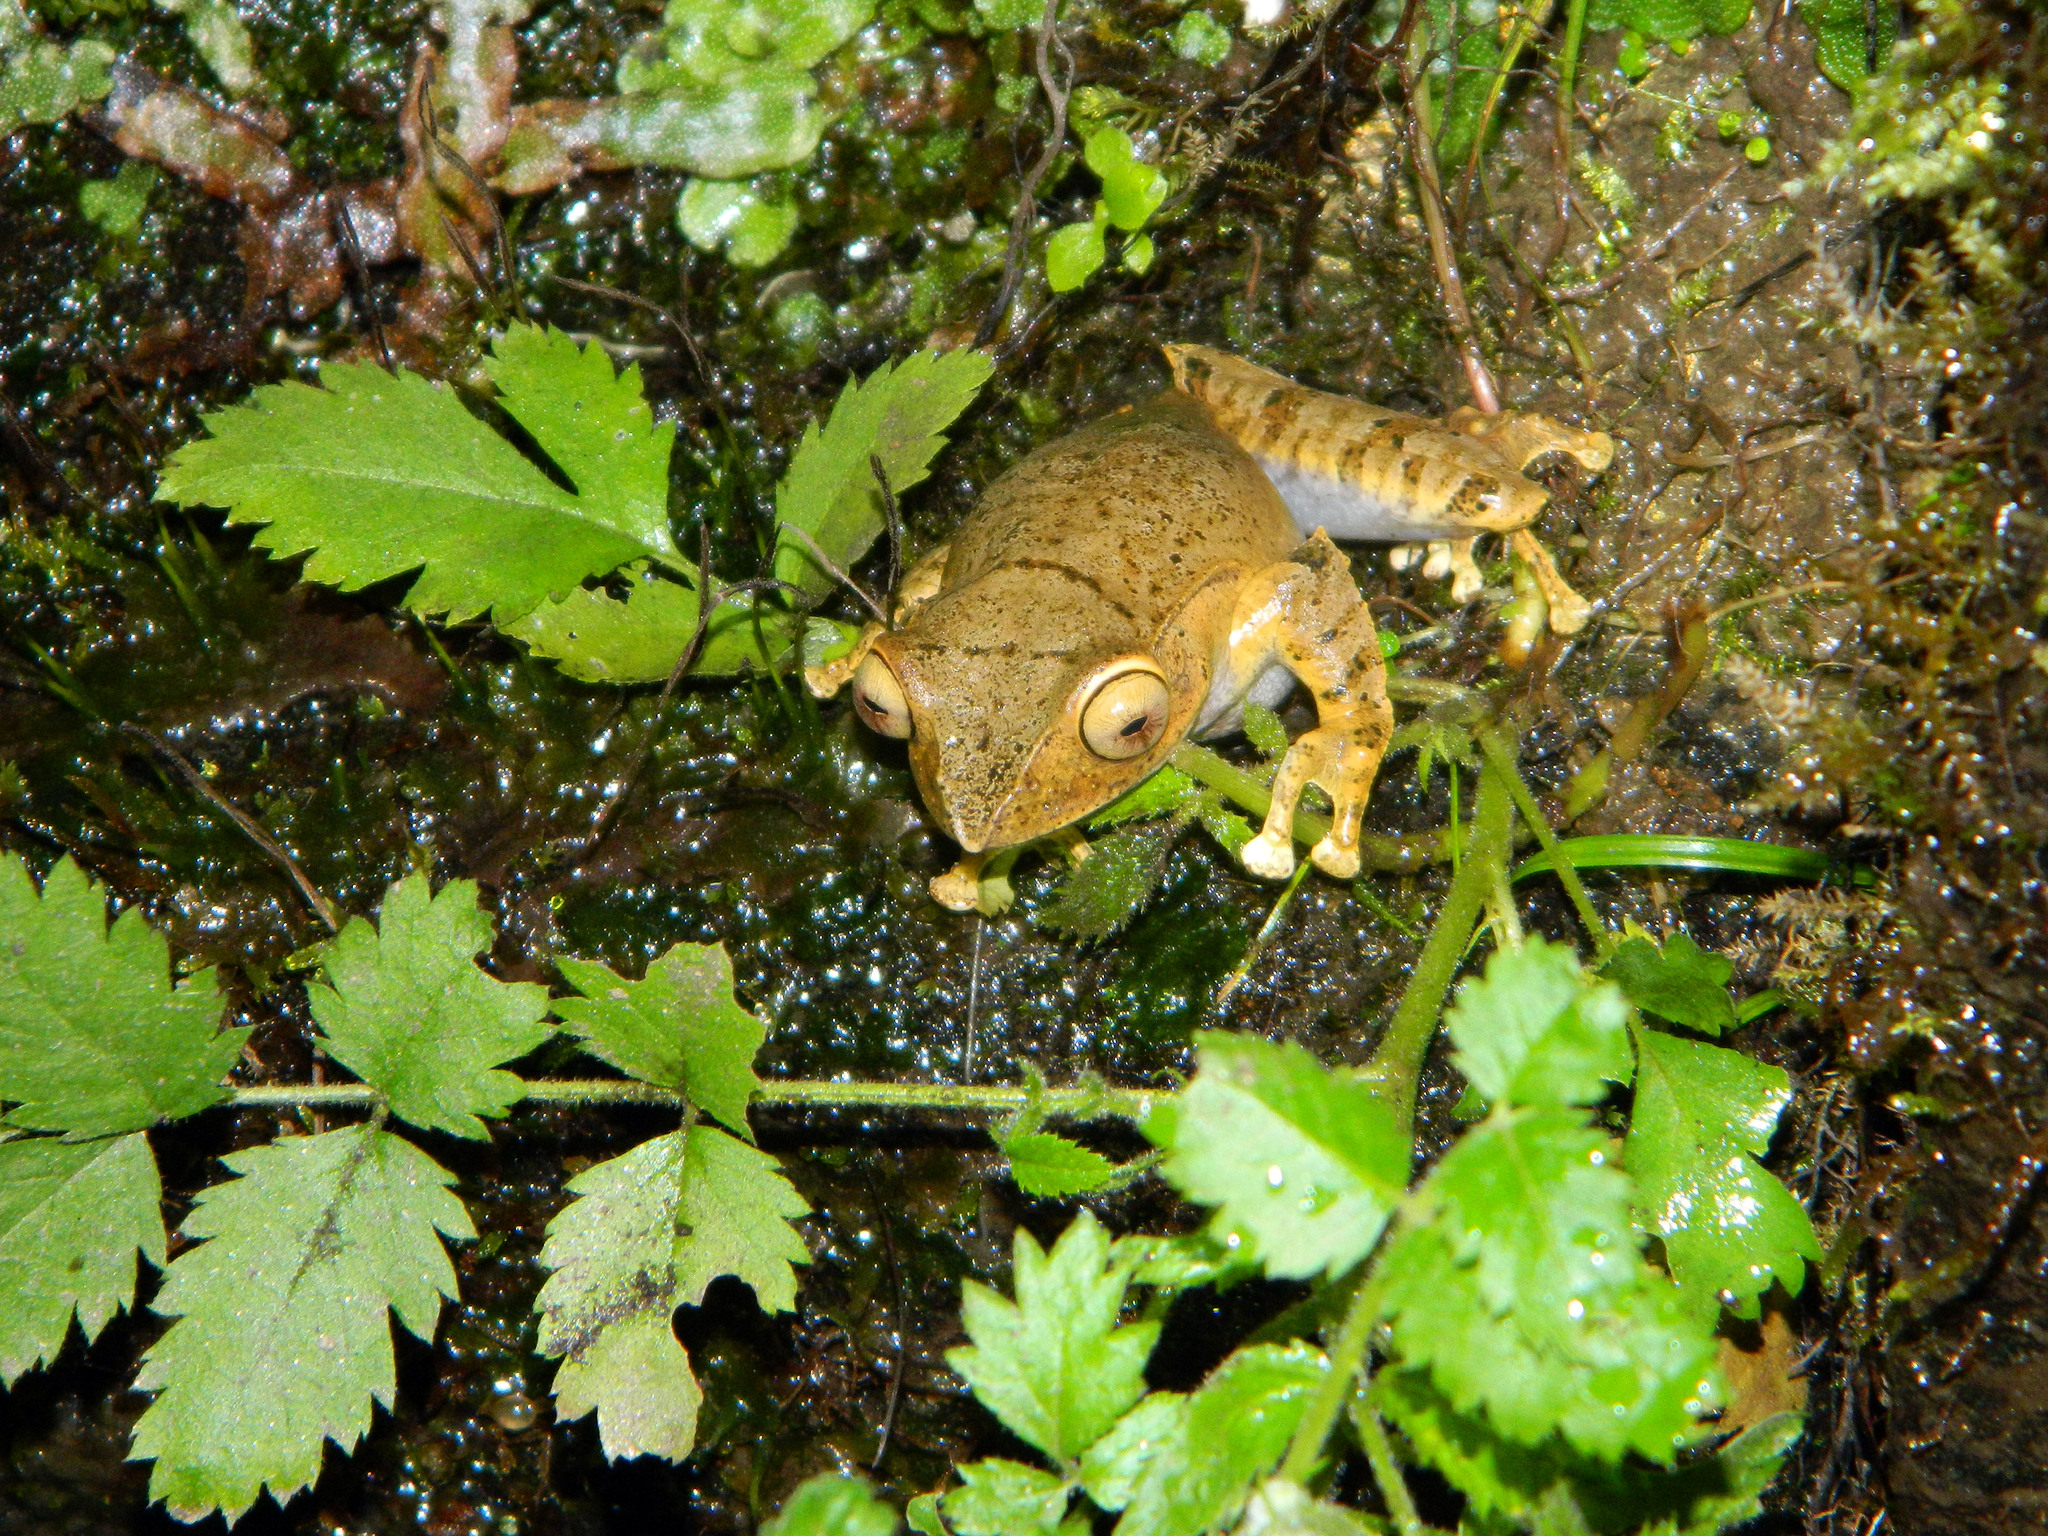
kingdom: Animalia
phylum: Chordata
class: Amphibia
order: Anura
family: Mantellidae
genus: Boophis
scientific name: Boophis madagascariensis
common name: Madagascar bright-eyed frog
